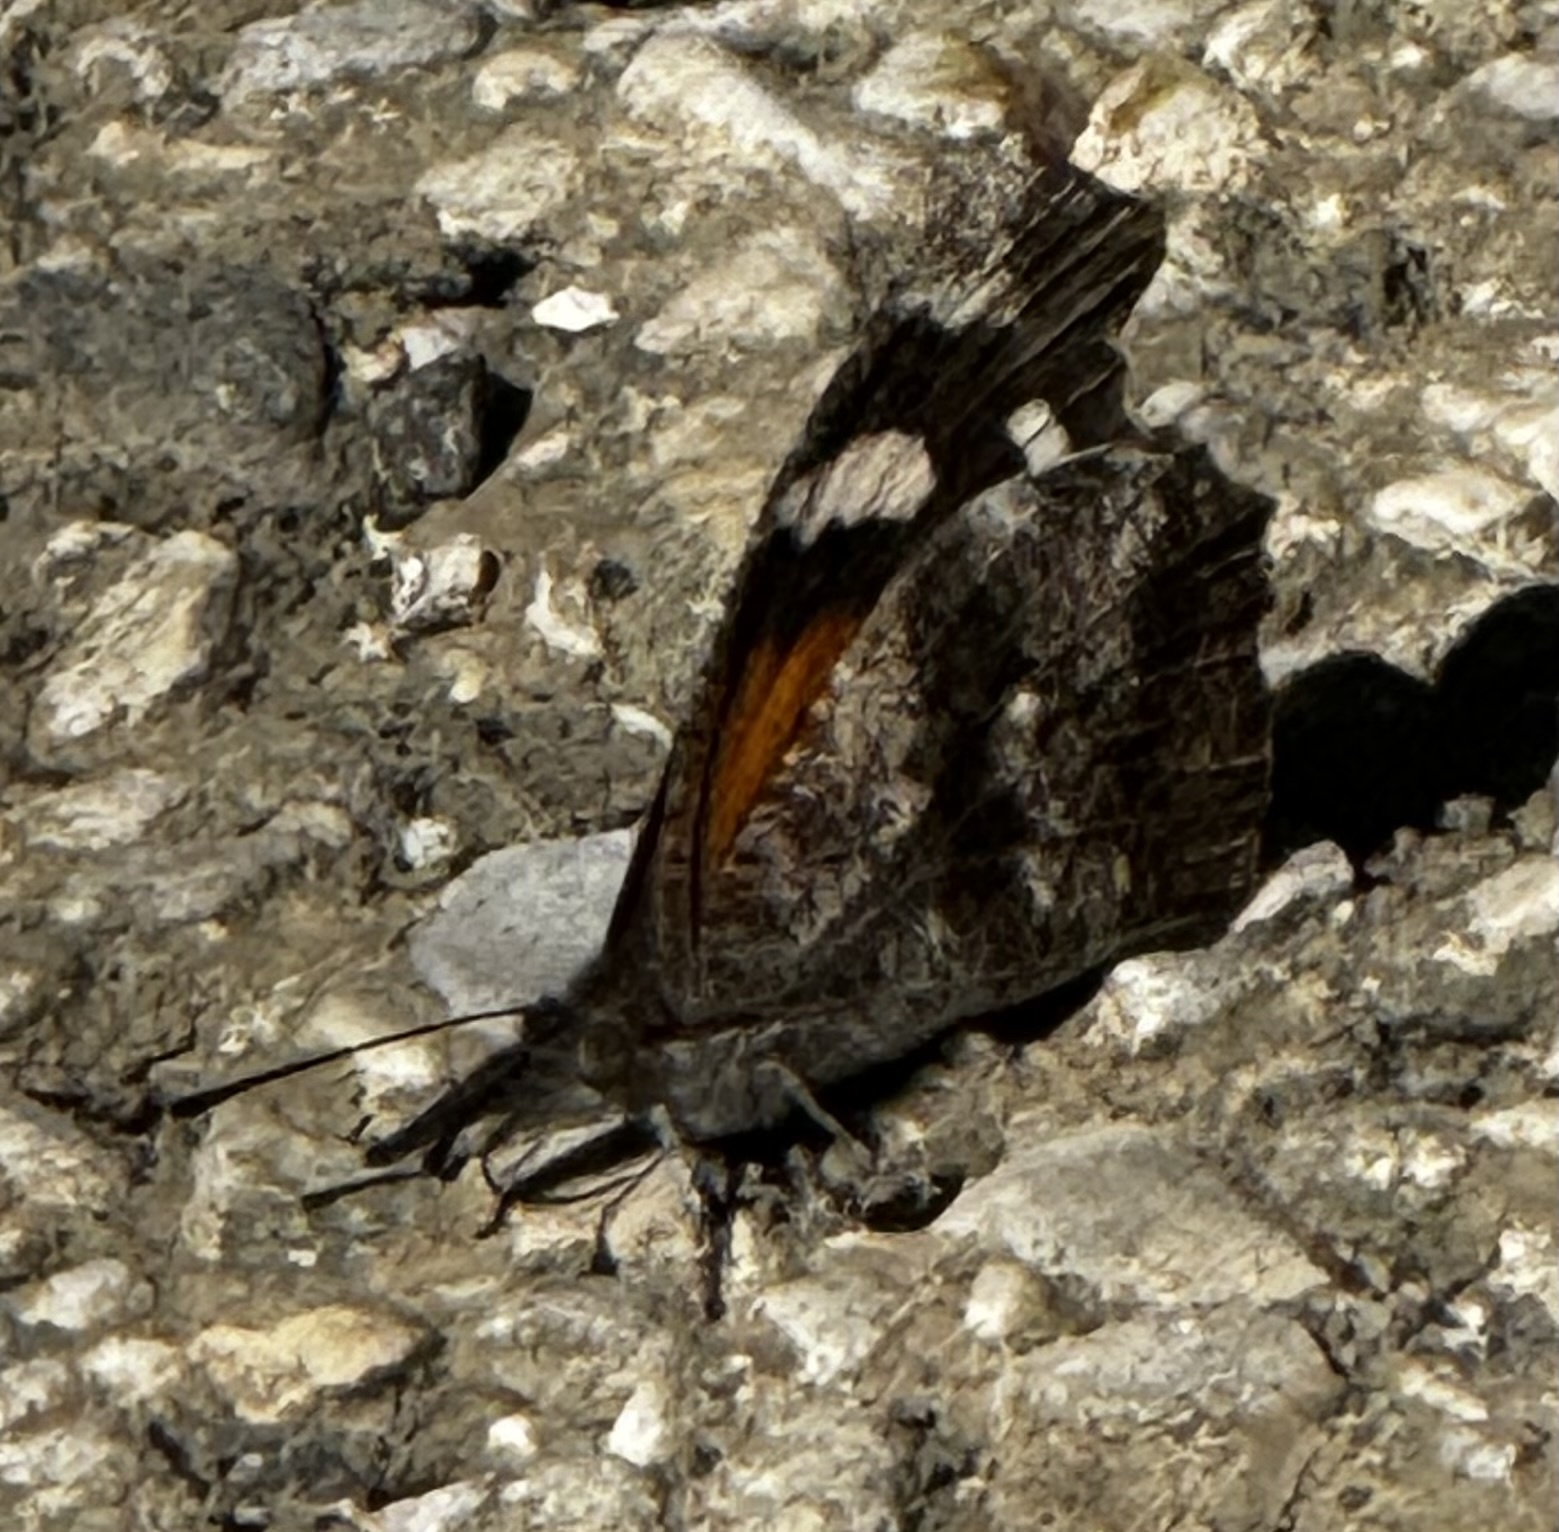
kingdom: Animalia
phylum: Arthropoda
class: Insecta
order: Lepidoptera
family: Nymphalidae
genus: Libytheana
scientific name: Libytheana carinenta
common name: American snout
